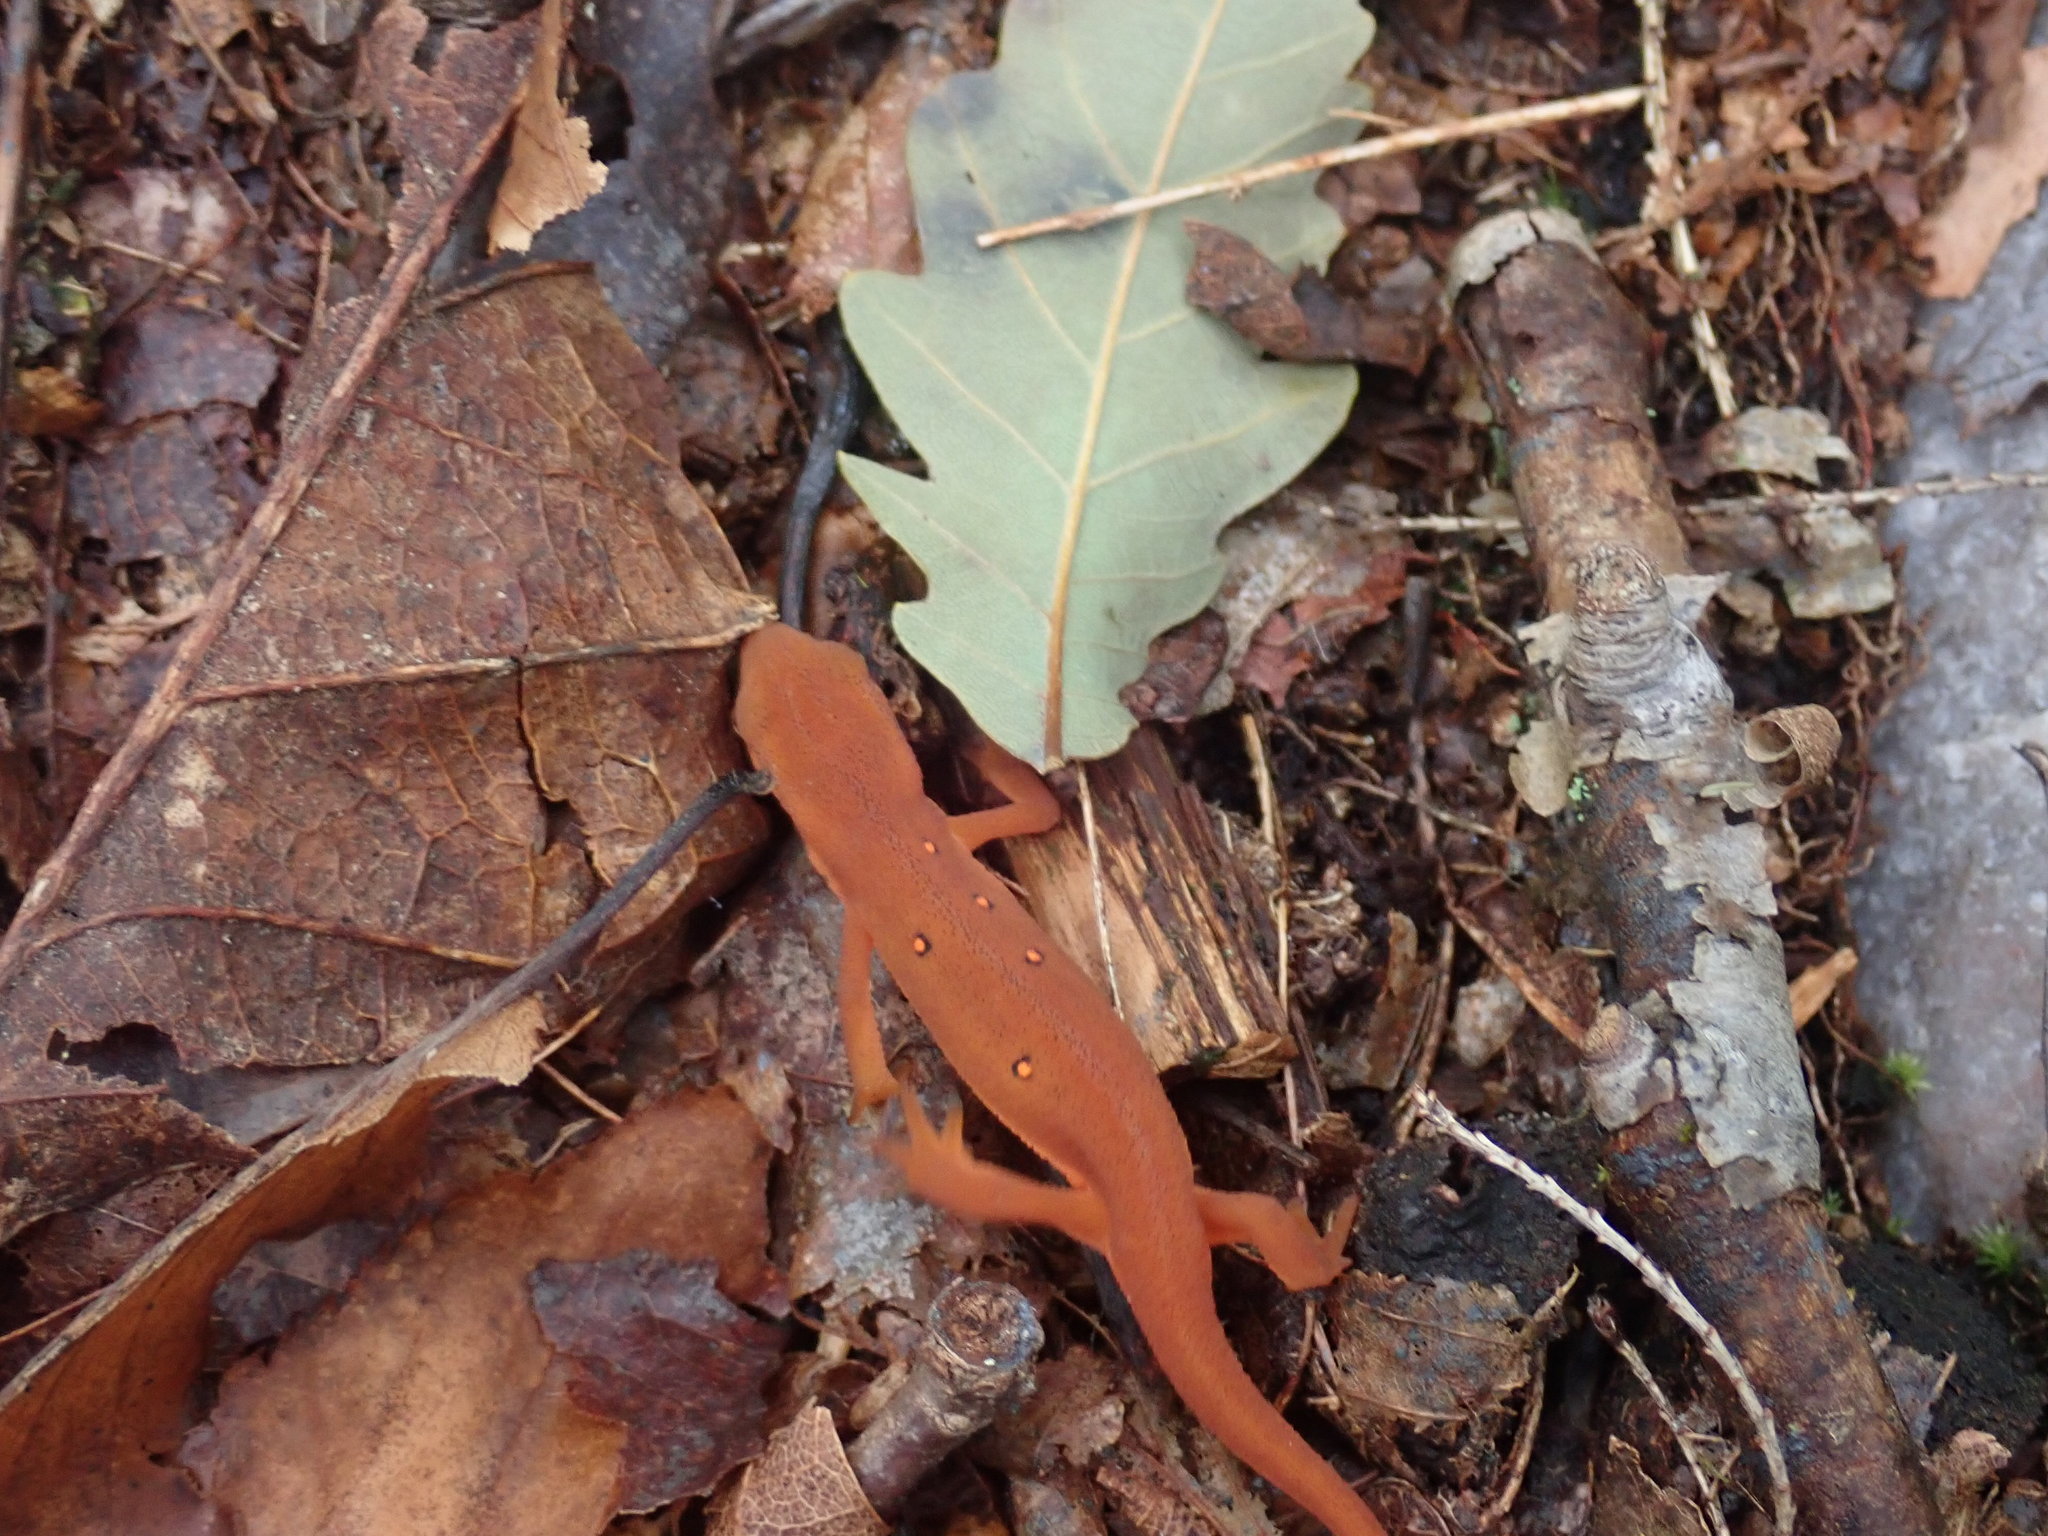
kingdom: Animalia
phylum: Chordata
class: Amphibia
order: Caudata
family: Salamandridae
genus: Notophthalmus
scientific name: Notophthalmus viridescens
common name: Eastern newt
